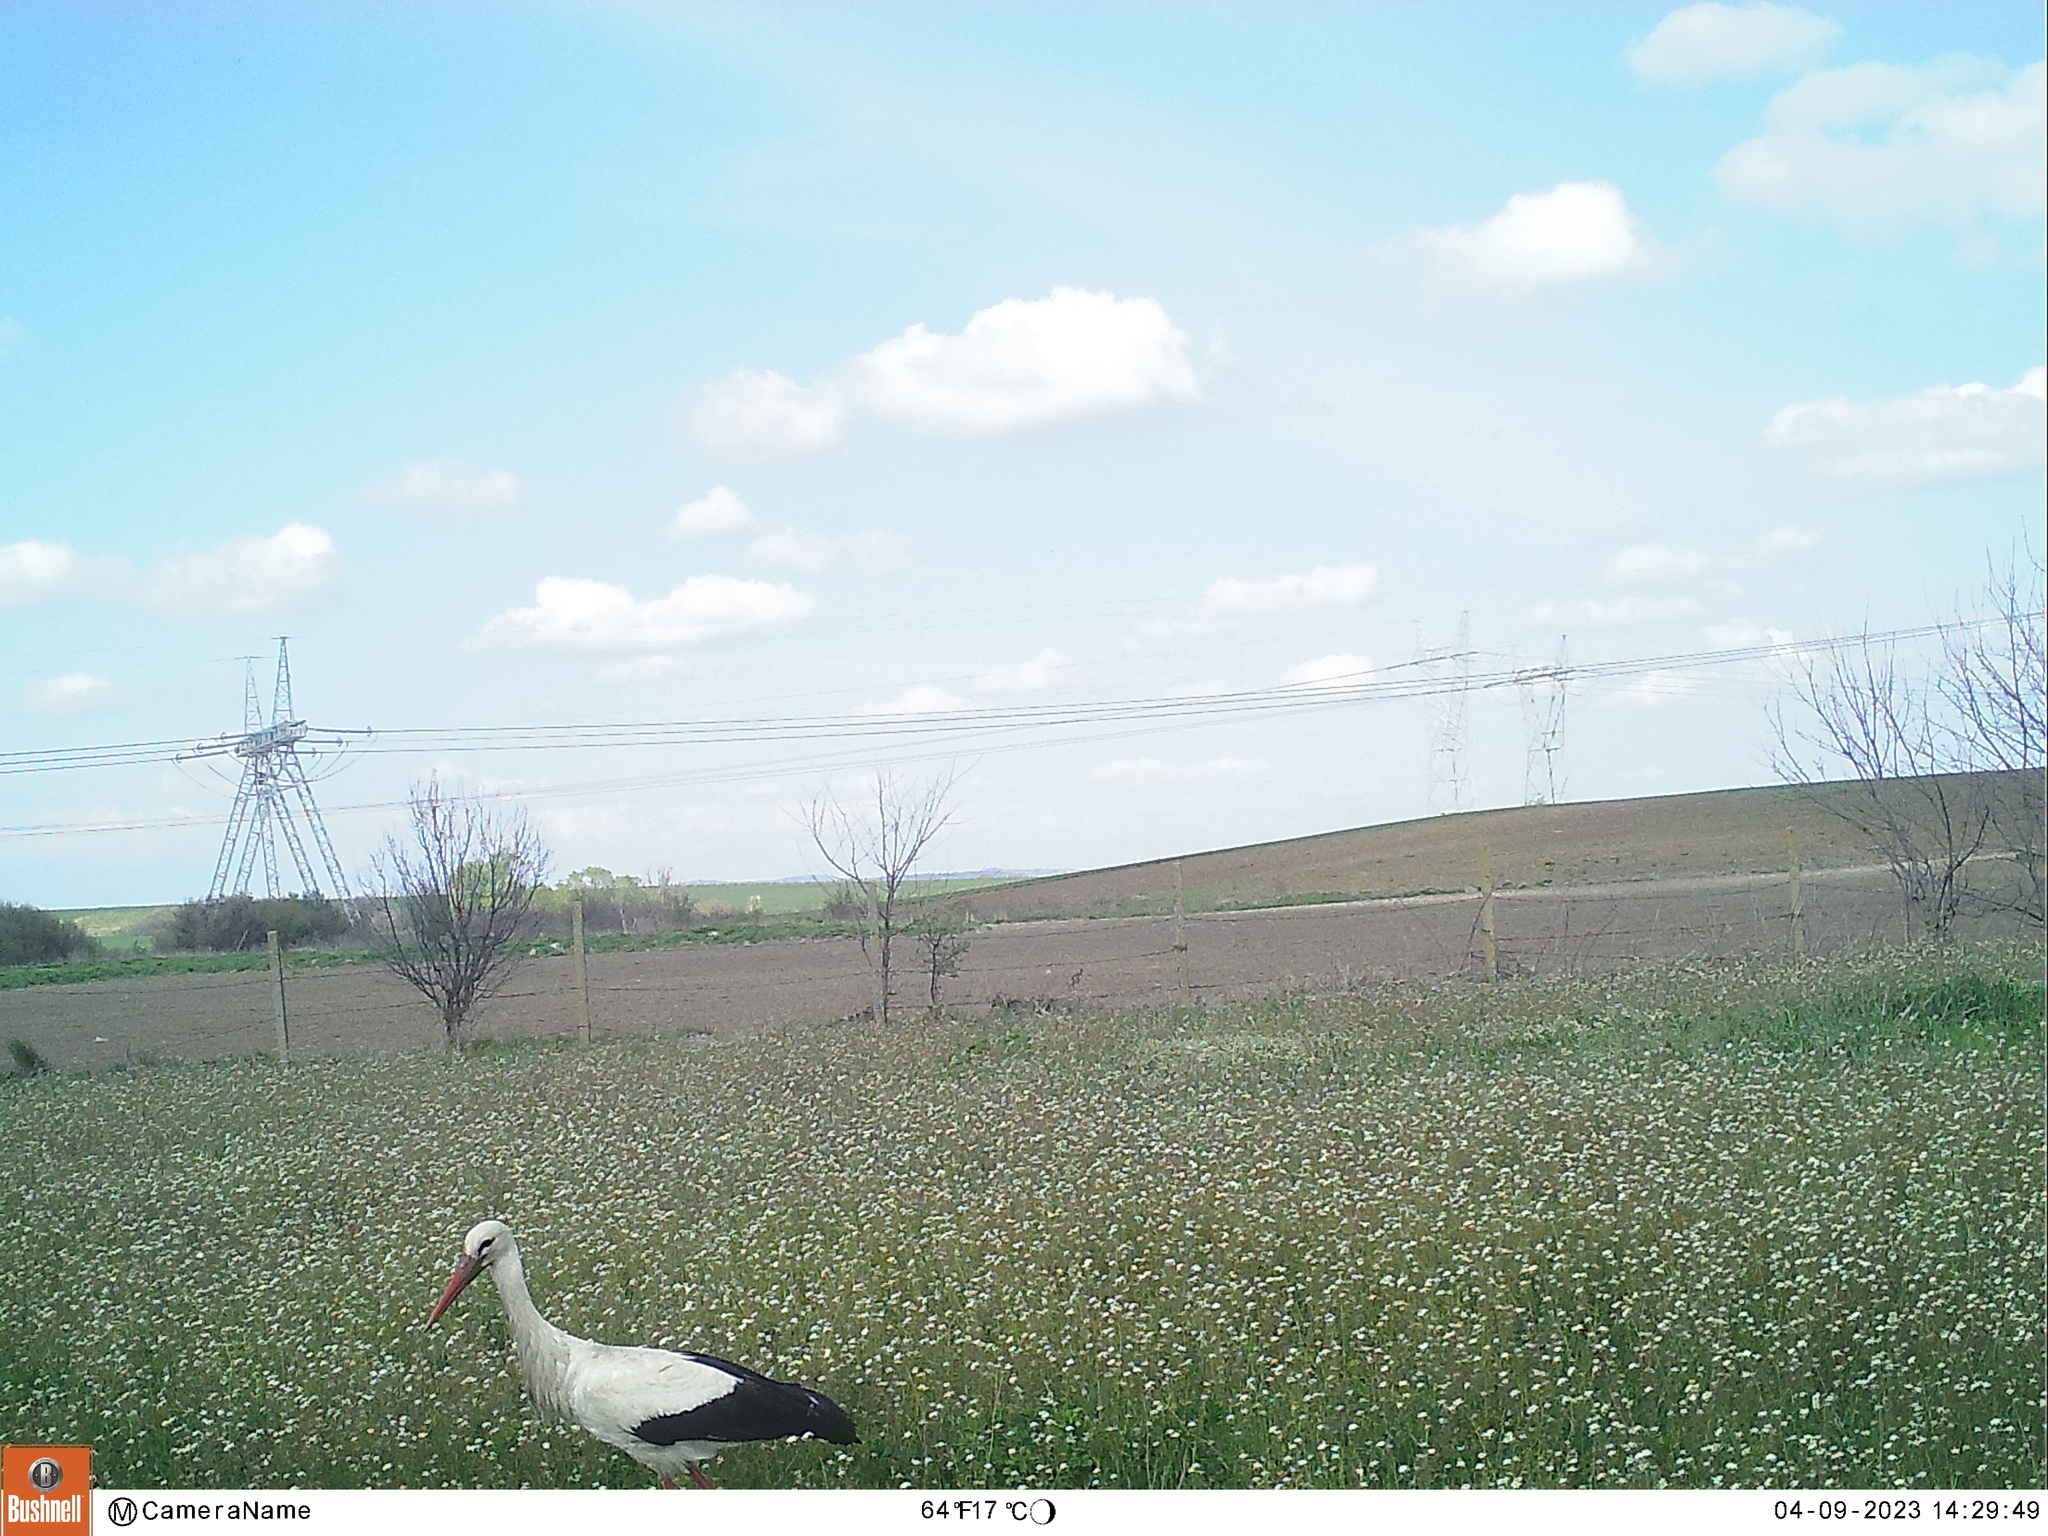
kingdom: Animalia
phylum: Chordata
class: Aves
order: Ciconiiformes
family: Ciconiidae
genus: Ciconia
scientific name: Ciconia ciconia
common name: White stork
